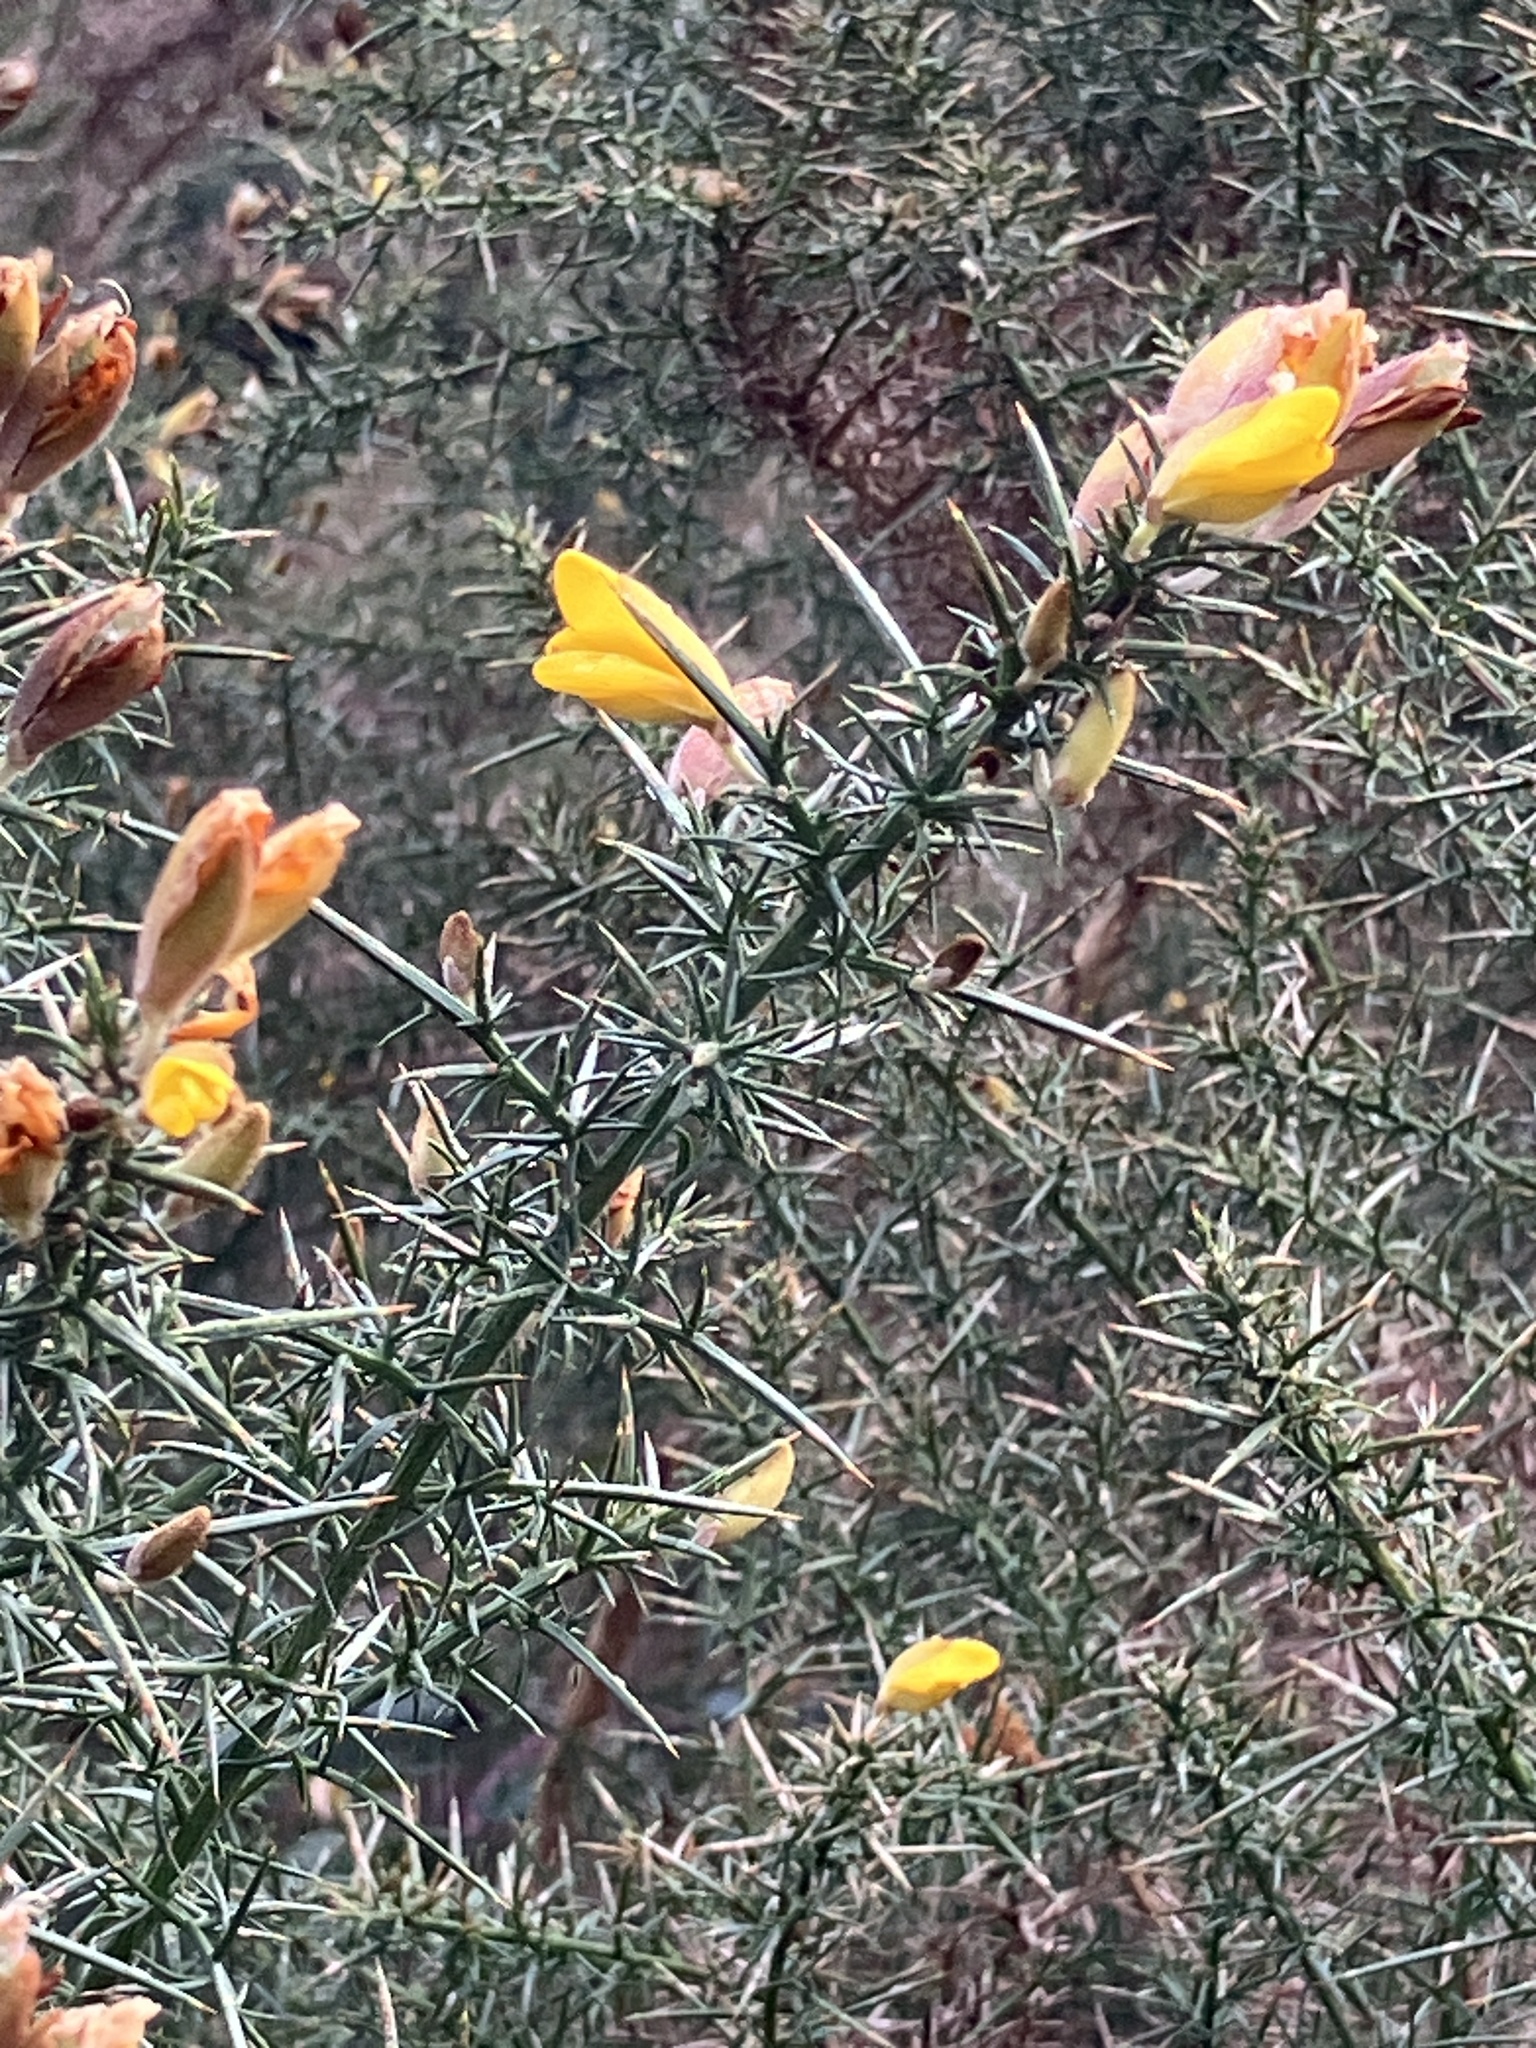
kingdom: Plantae
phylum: Tracheophyta
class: Magnoliopsida
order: Fabales
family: Fabaceae
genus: Ulex
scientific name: Ulex europaeus
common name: Common gorse
